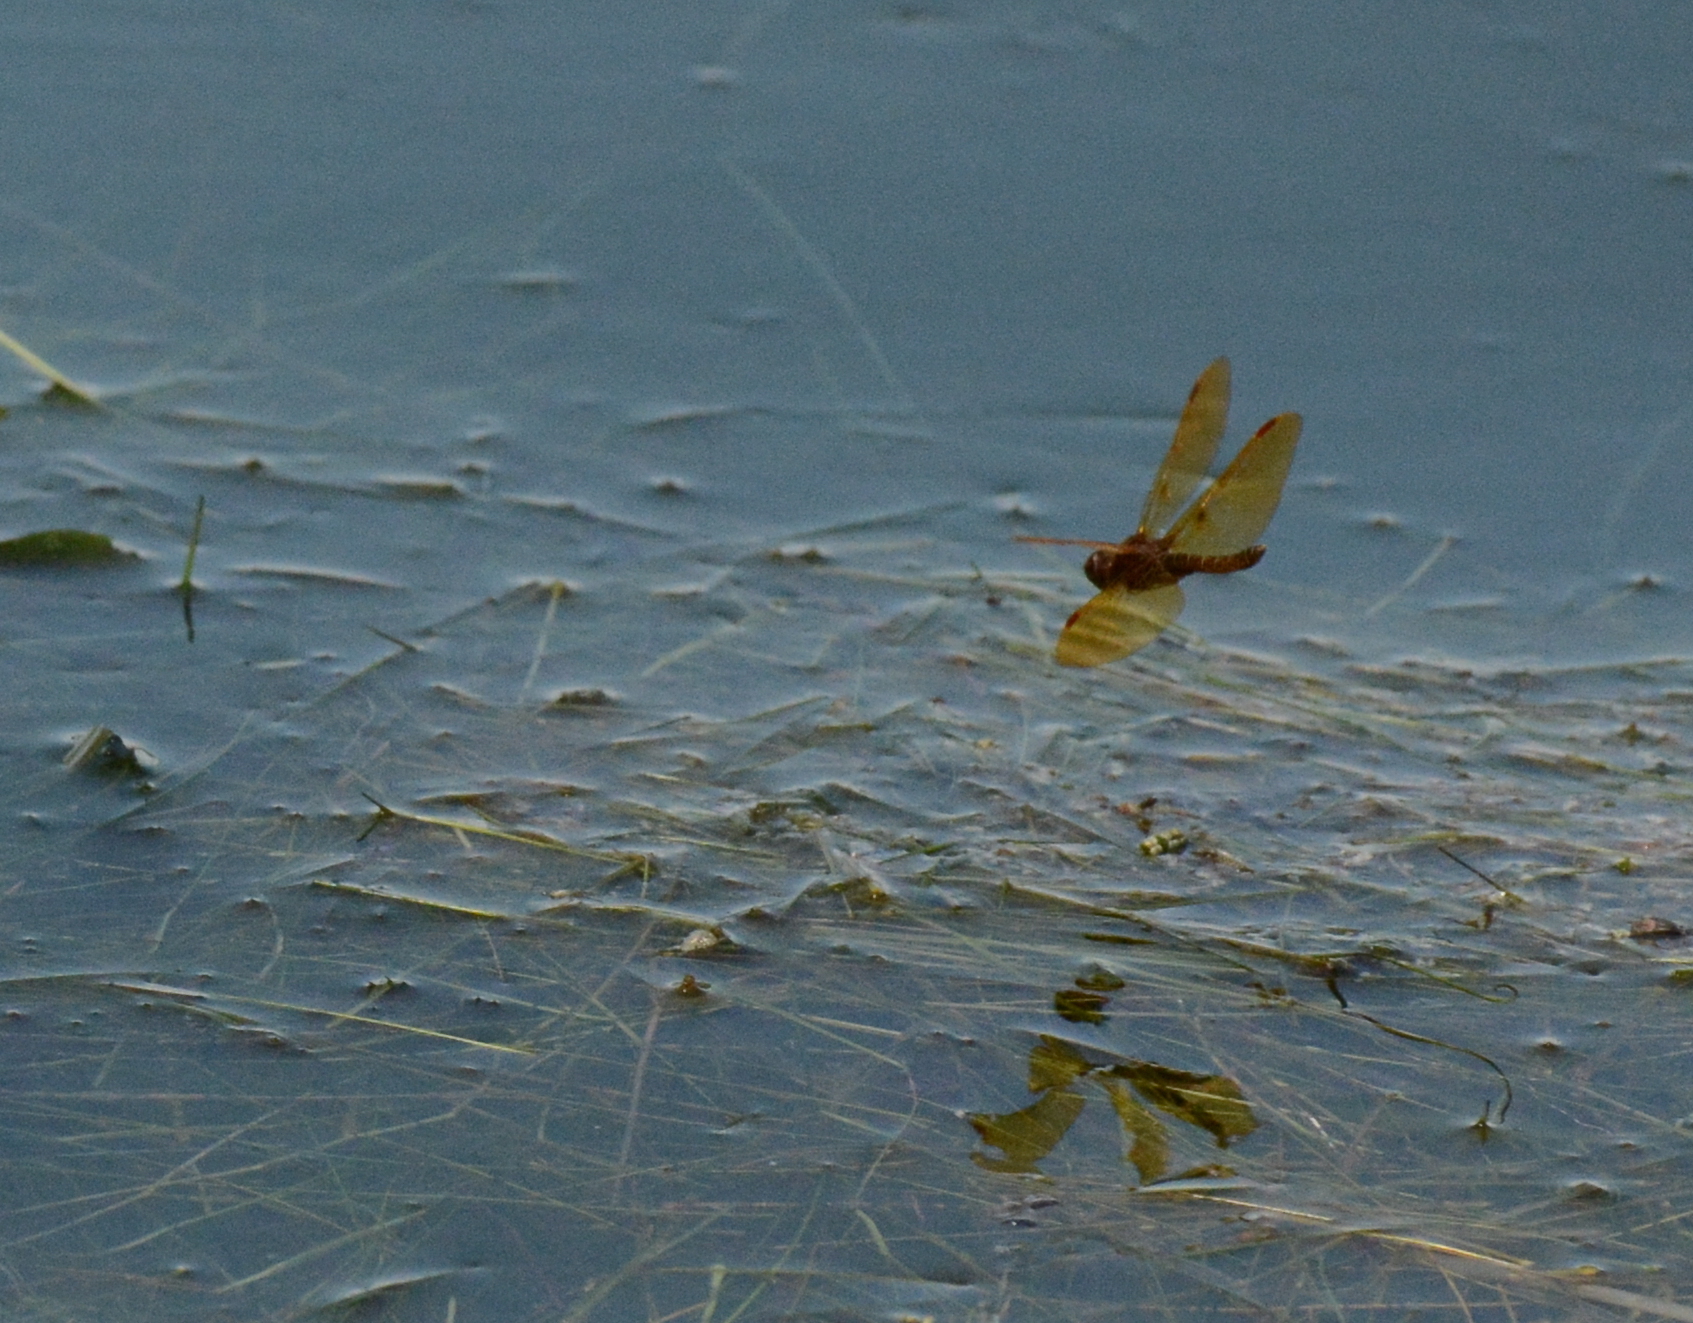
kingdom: Animalia
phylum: Arthropoda
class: Insecta
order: Odonata
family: Libellulidae
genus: Perithemis
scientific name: Perithemis tenera
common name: Eastern amberwing
